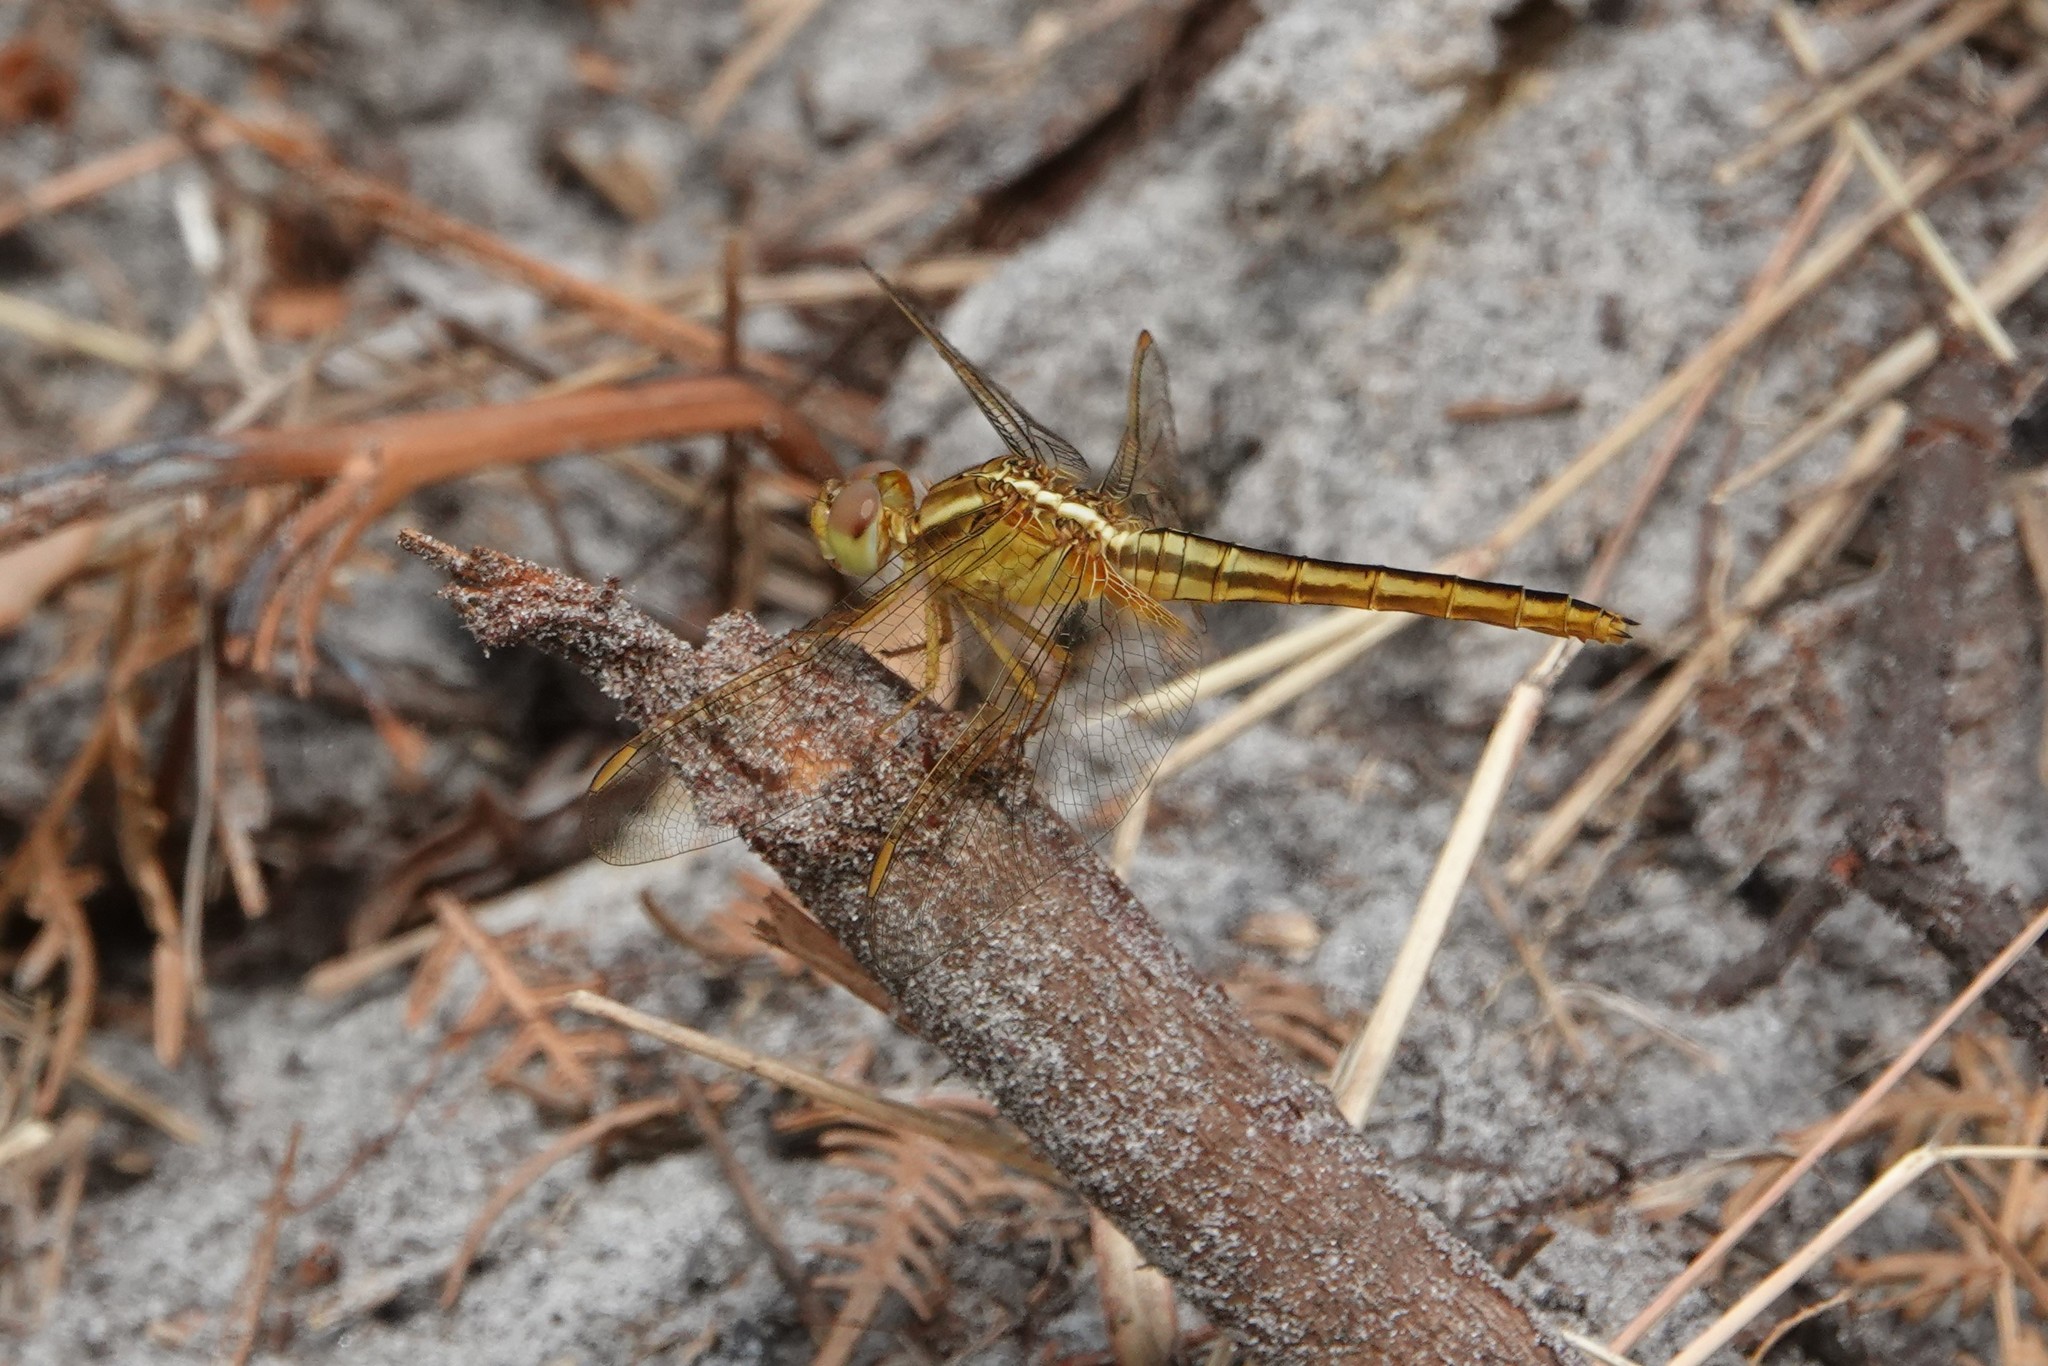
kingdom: Animalia
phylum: Arthropoda
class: Insecta
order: Odonata
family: Libellulidae
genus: Crocothemis
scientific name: Crocothemis servilia
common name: Scarlet skimmer
